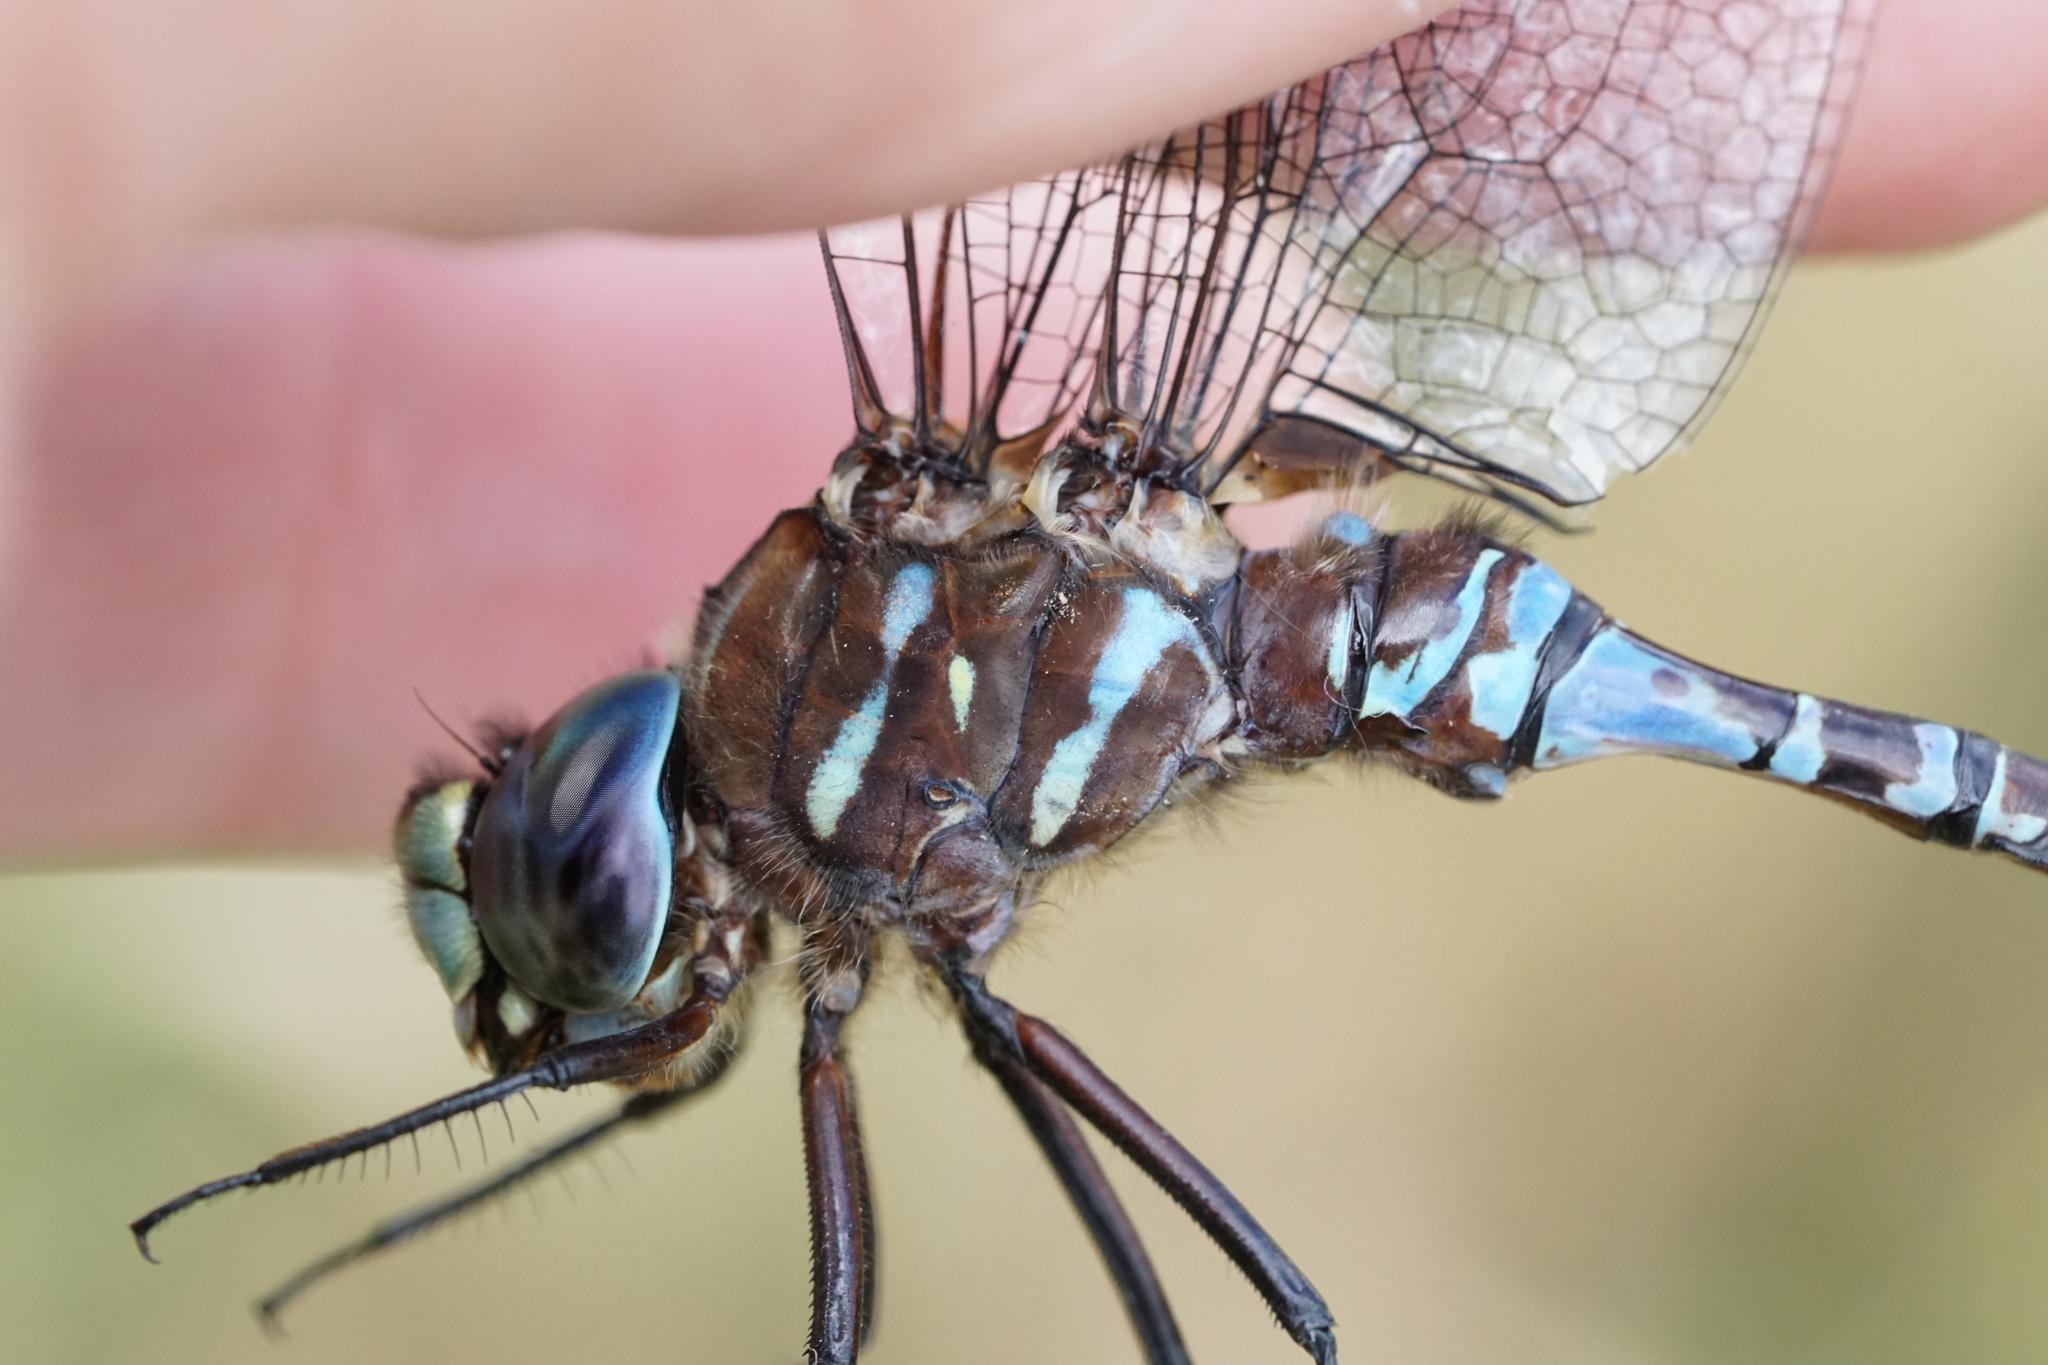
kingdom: Animalia
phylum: Arthropoda
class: Insecta
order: Odonata
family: Aeshnidae
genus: Aeshna
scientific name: Aeshna interrupta
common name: Variable darner
